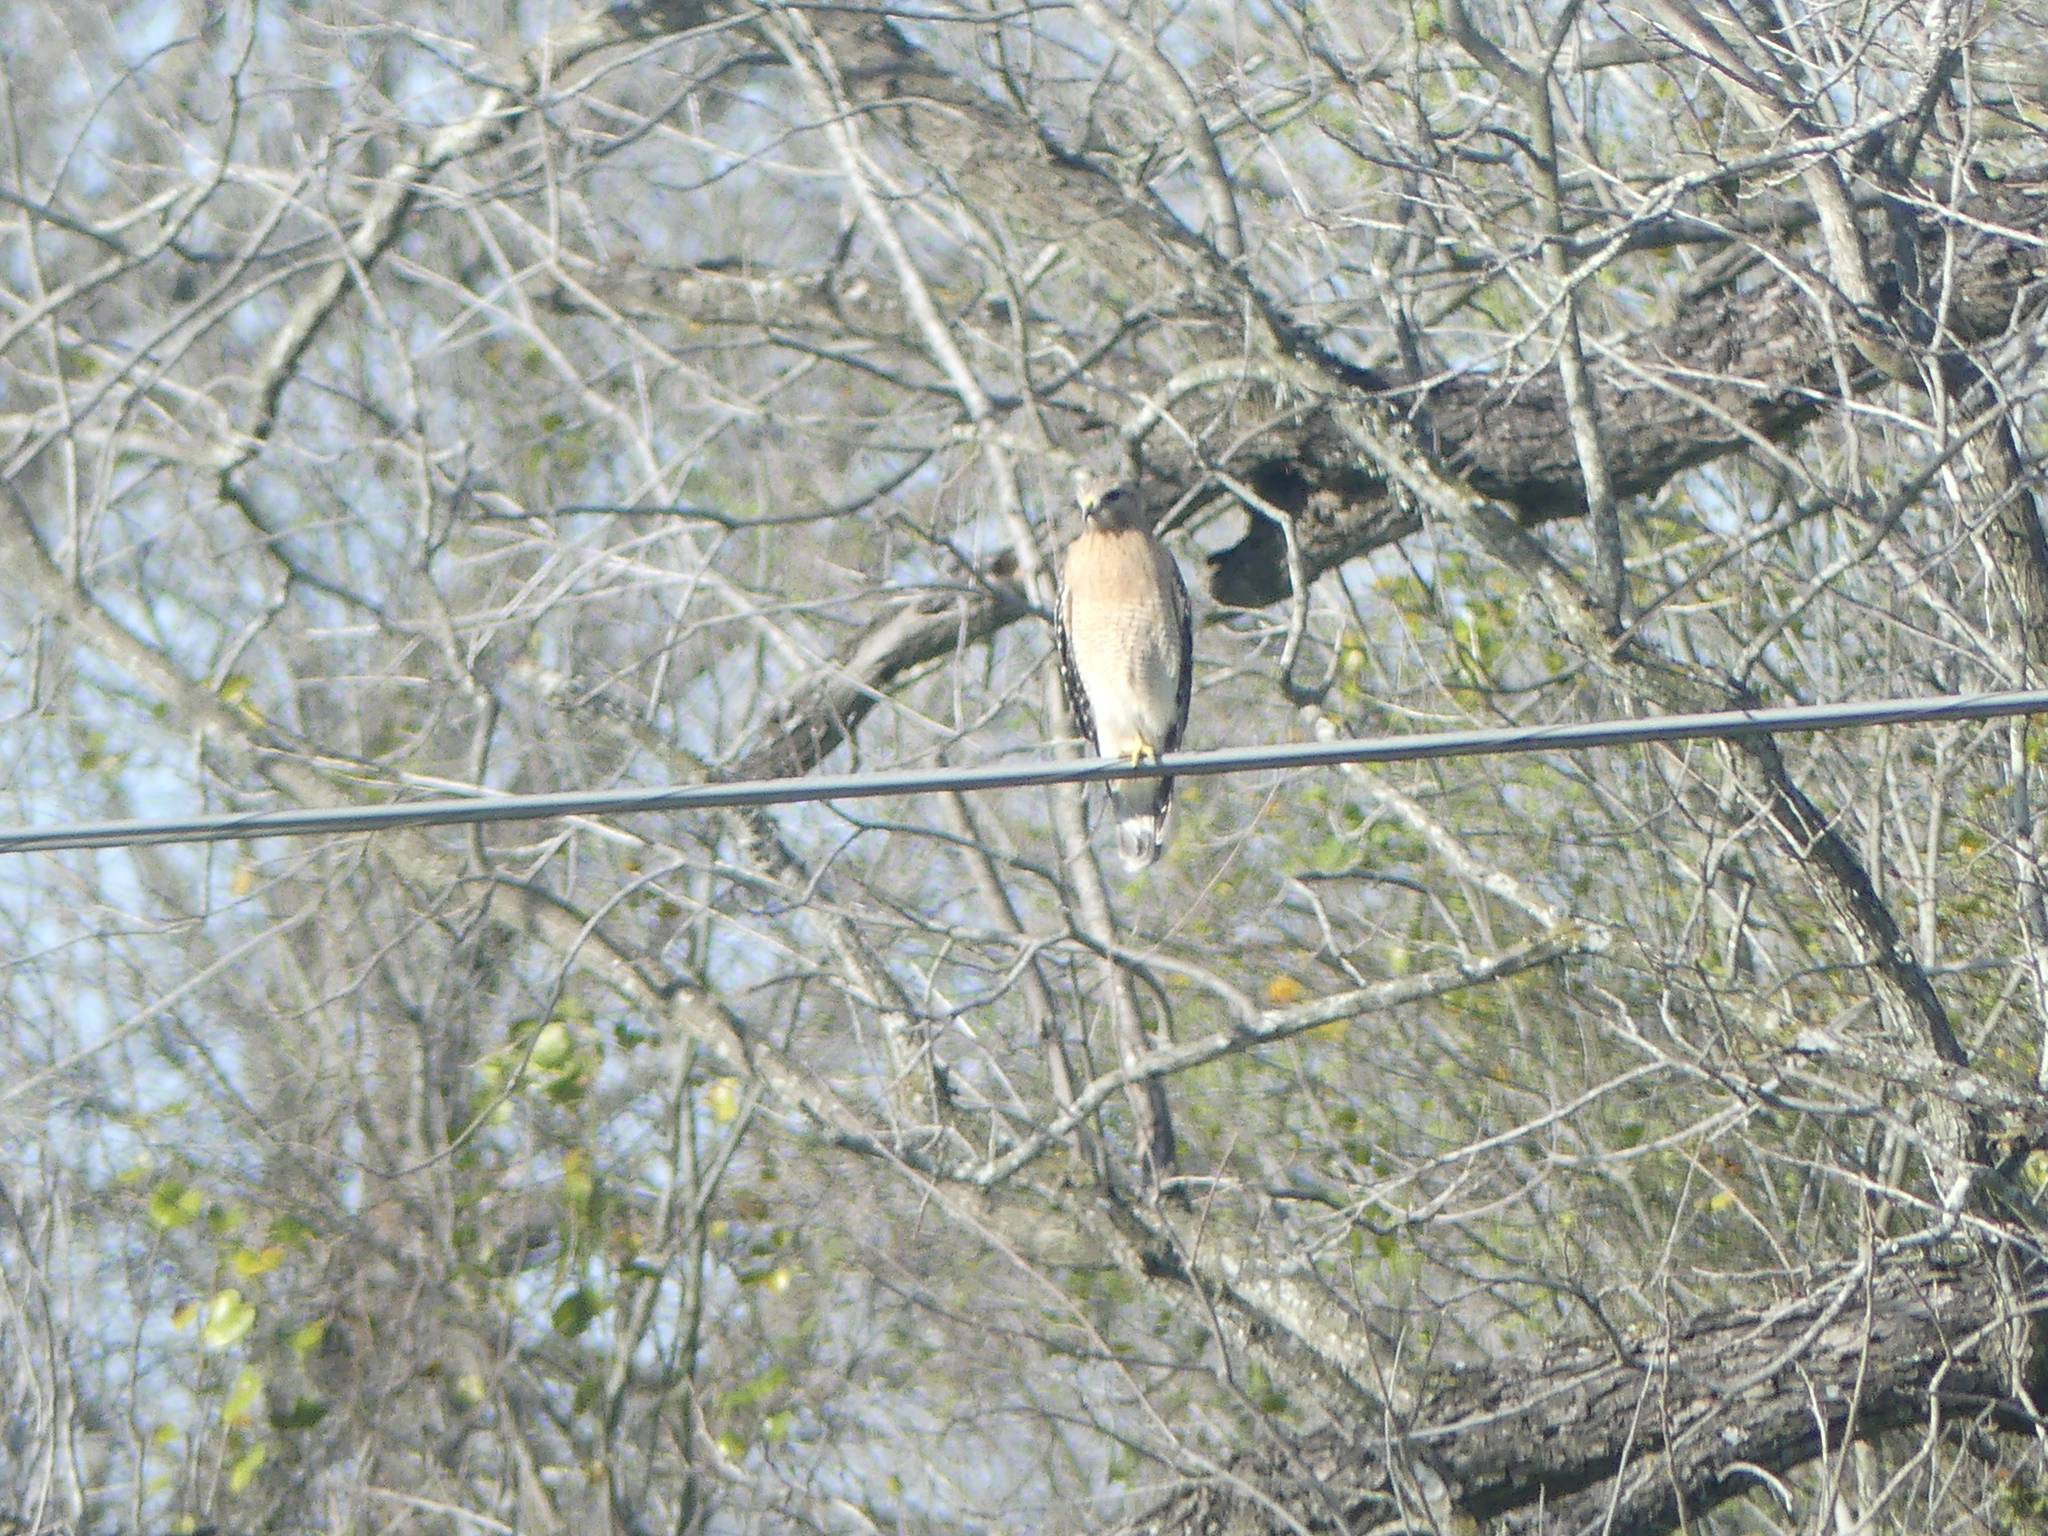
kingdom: Animalia
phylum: Chordata
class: Aves
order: Accipitriformes
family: Accipitridae
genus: Buteo
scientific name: Buteo lineatus
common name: Red-shouldered hawk
